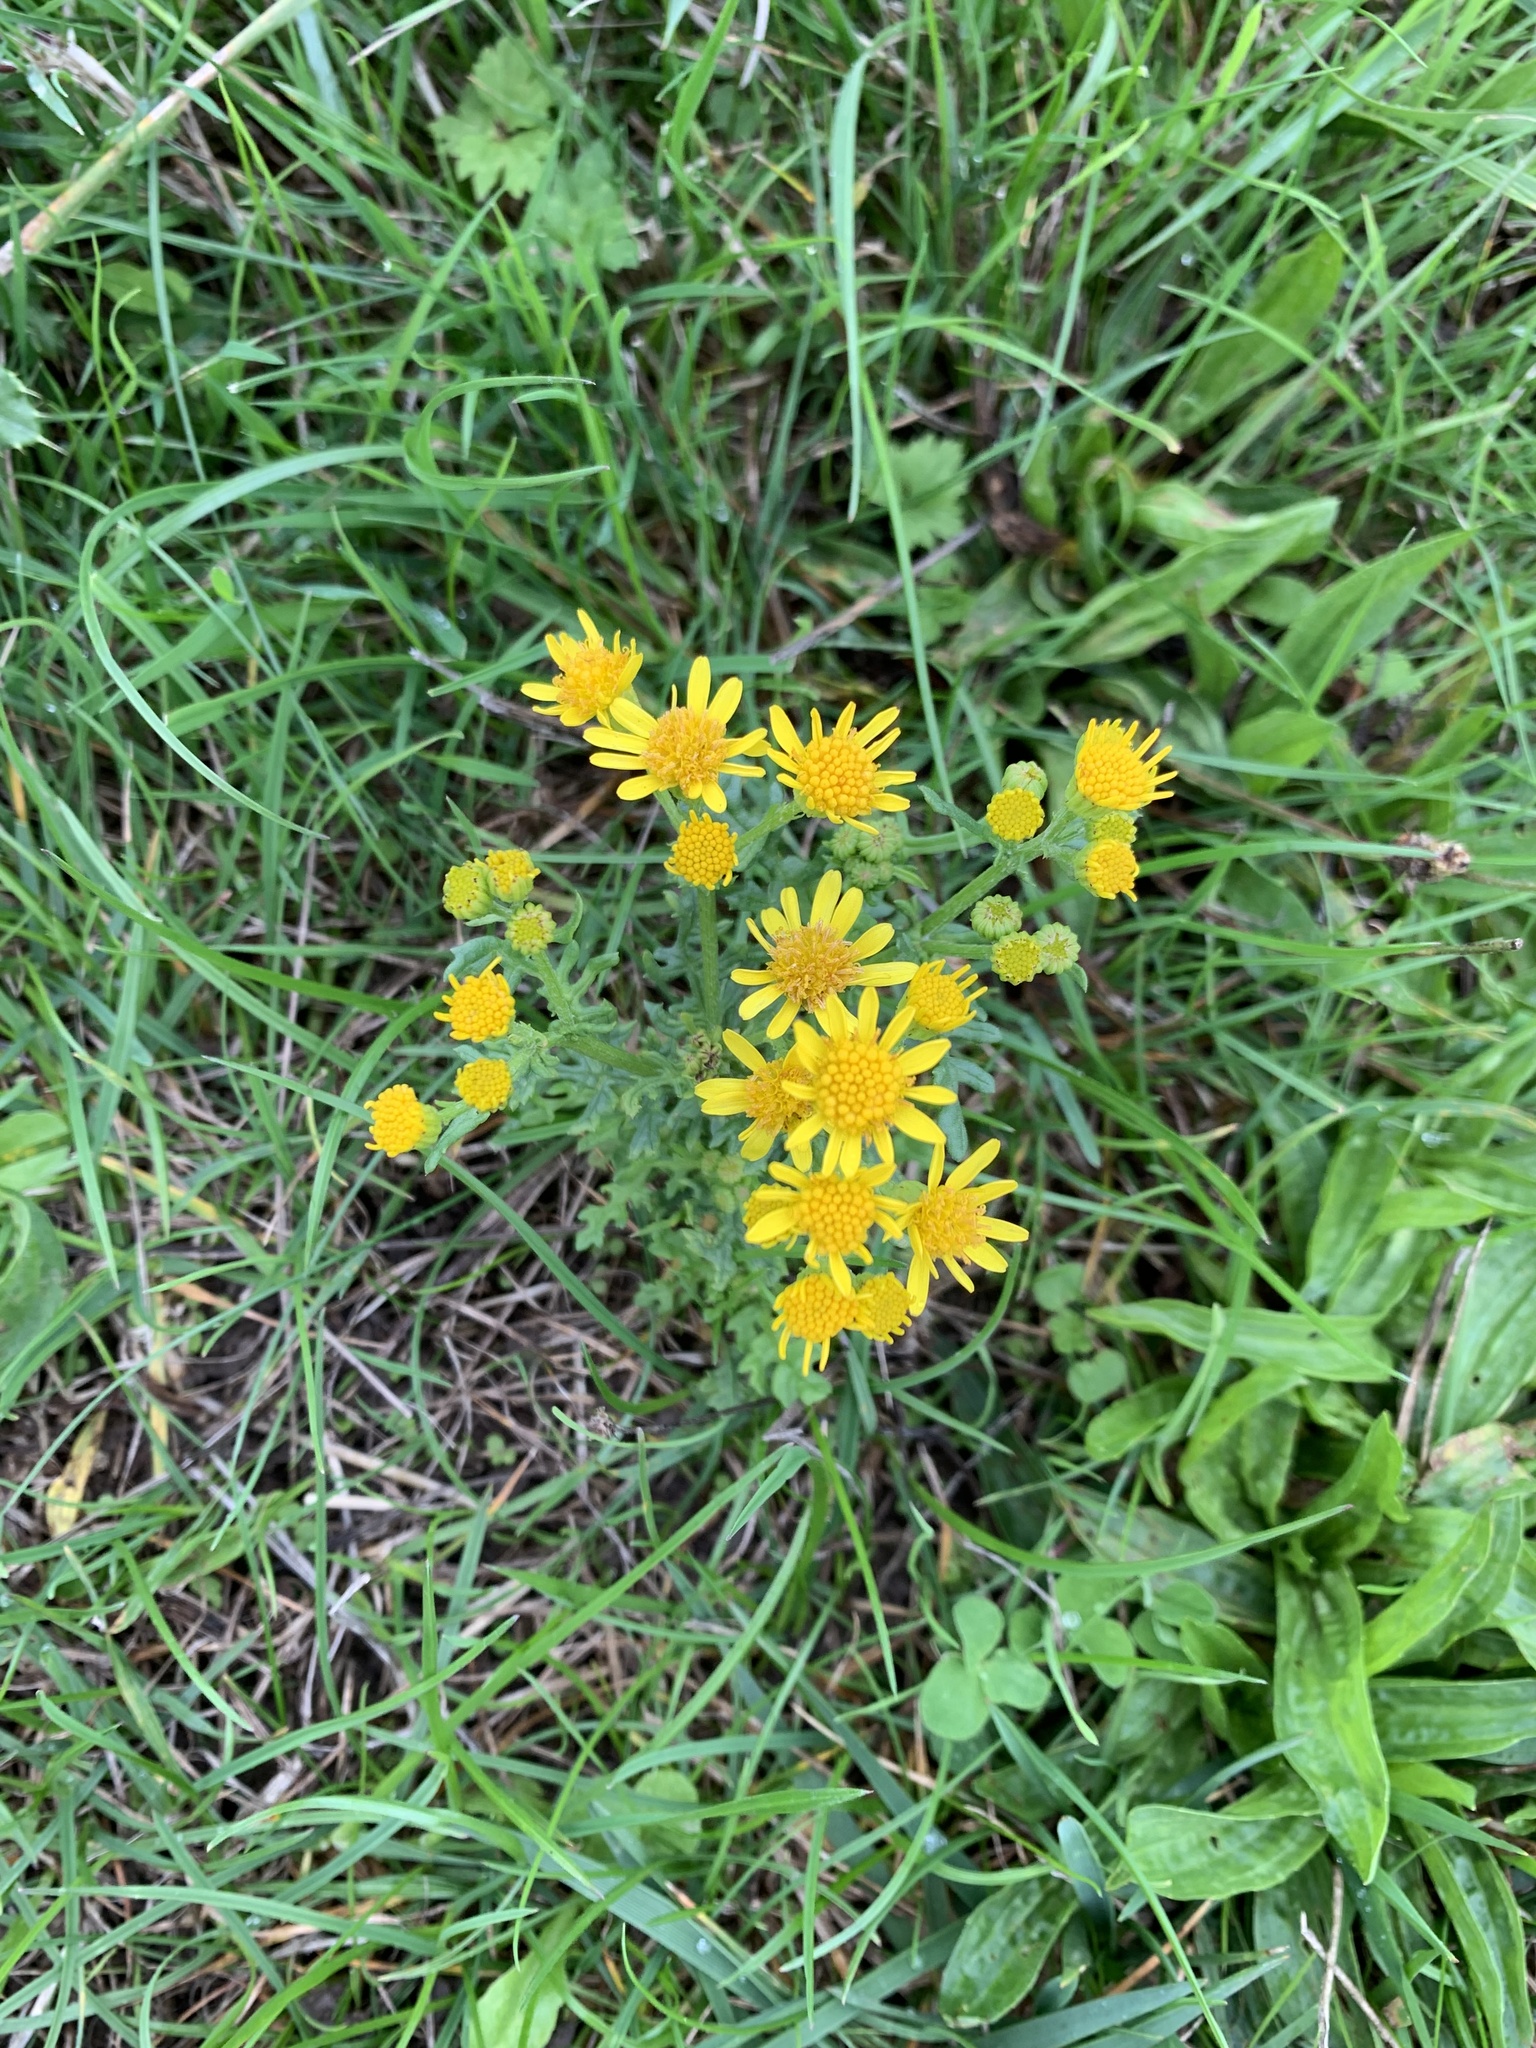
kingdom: Plantae
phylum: Tracheophyta
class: Magnoliopsida
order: Asterales
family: Asteraceae
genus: Jacobaea
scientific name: Jacobaea vulgaris
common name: Stinking willie
